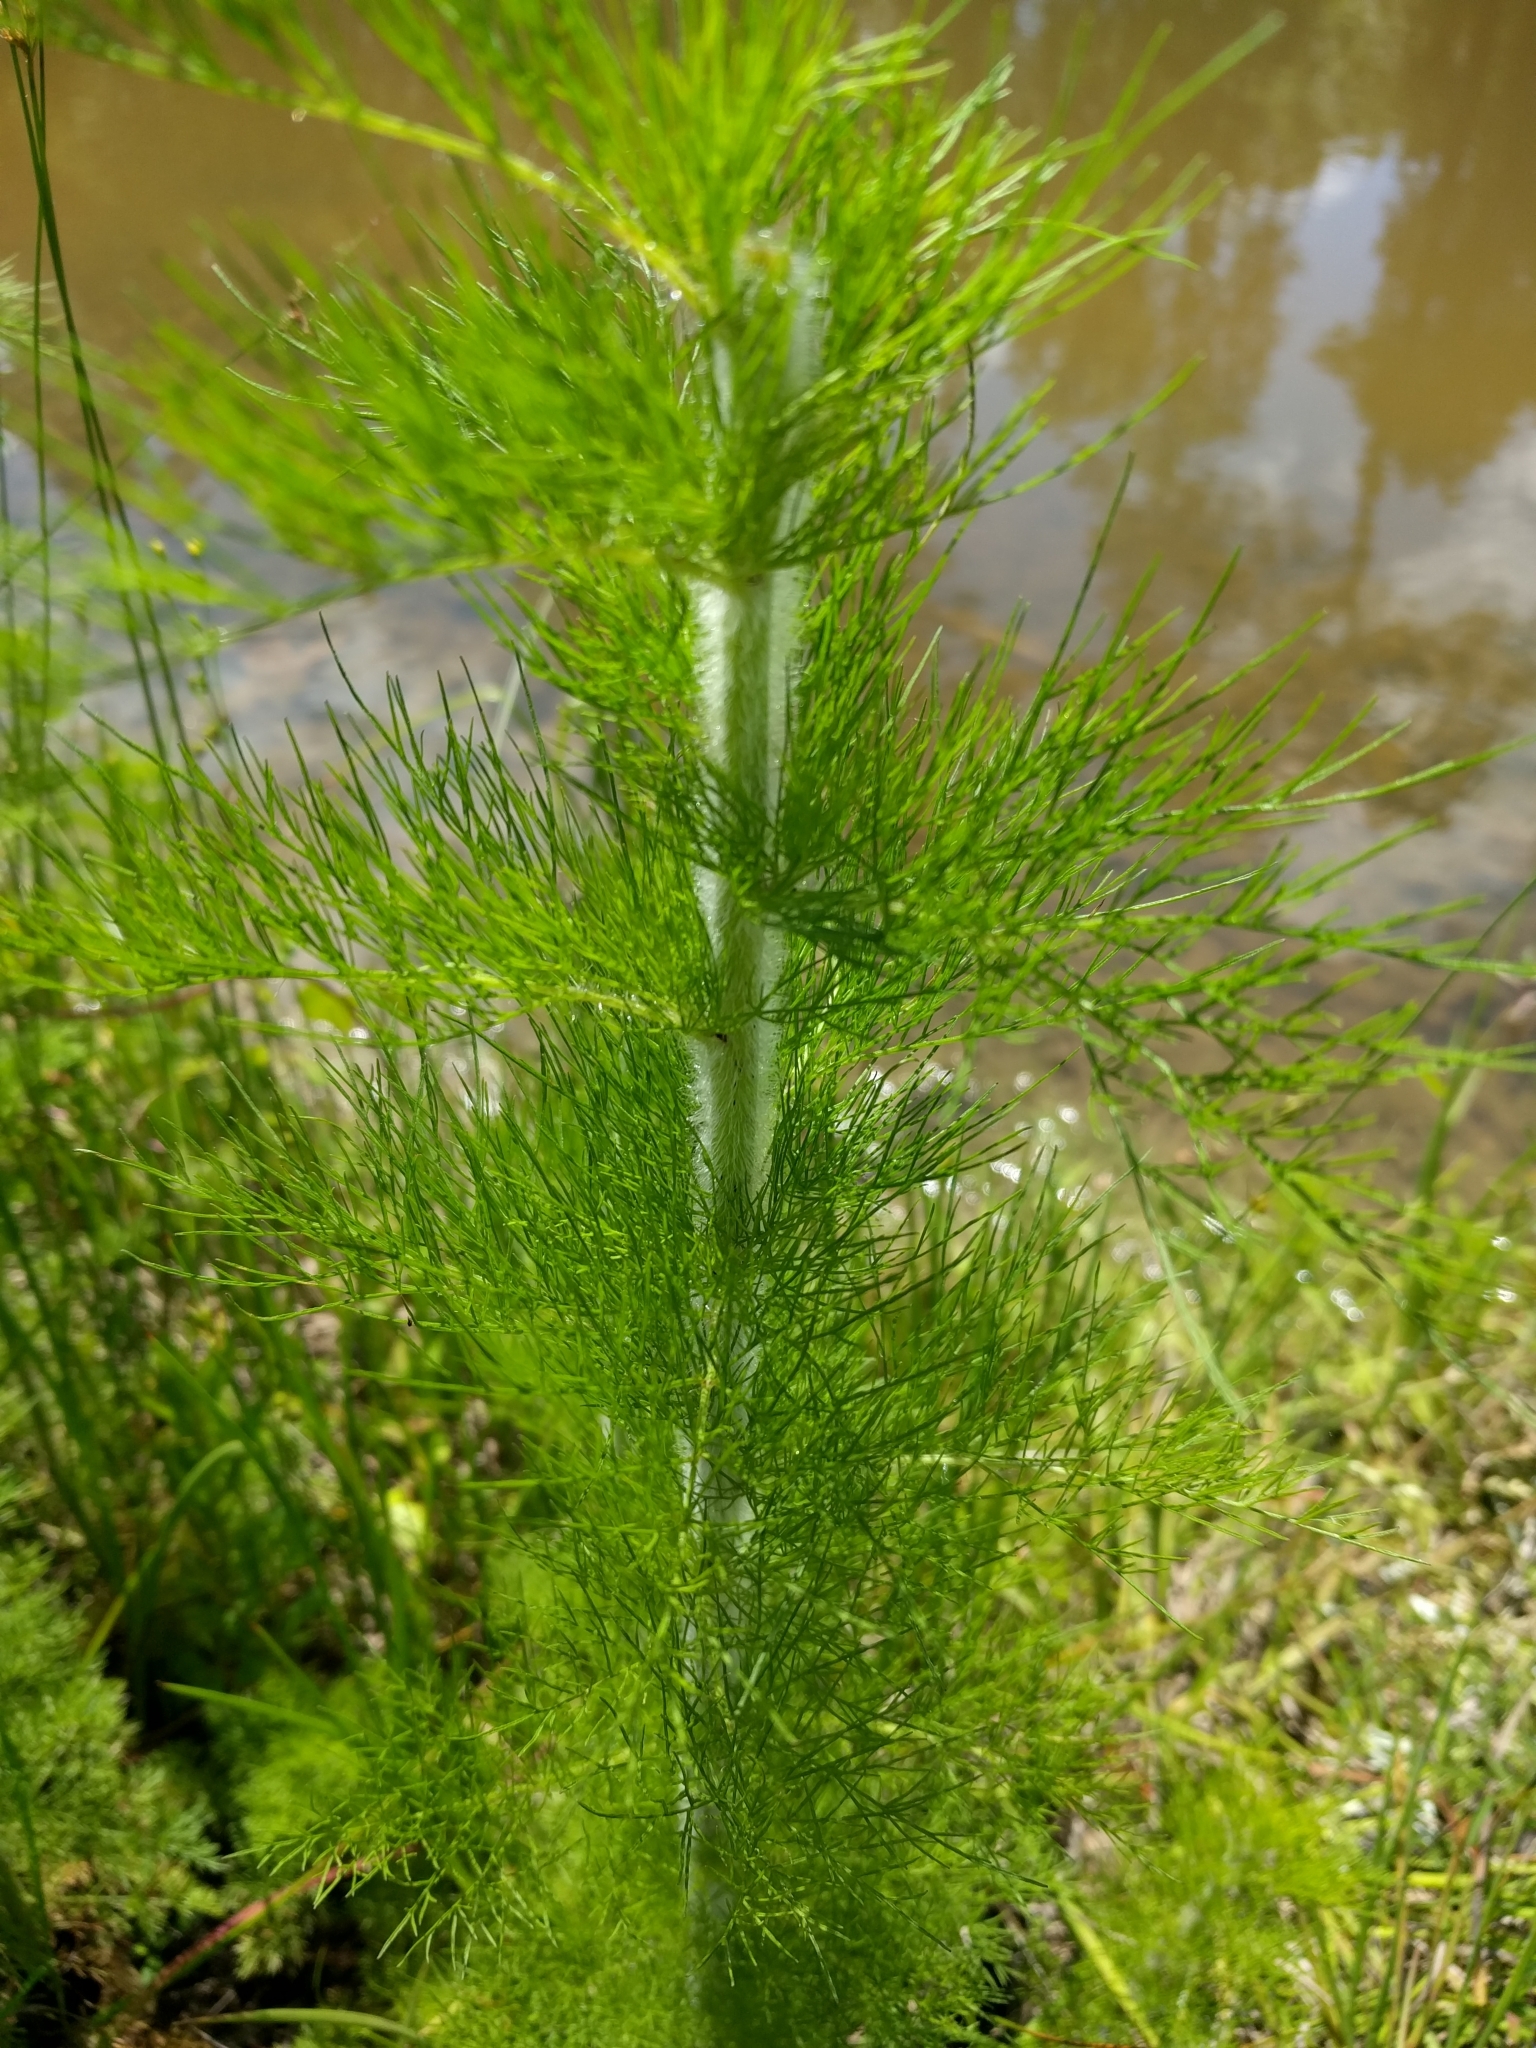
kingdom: Plantae
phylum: Tracheophyta
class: Magnoliopsida
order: Asterales
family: Asteraceae
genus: Eupatorium
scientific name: Eupatorium capillifolium
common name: Dog-fennel
